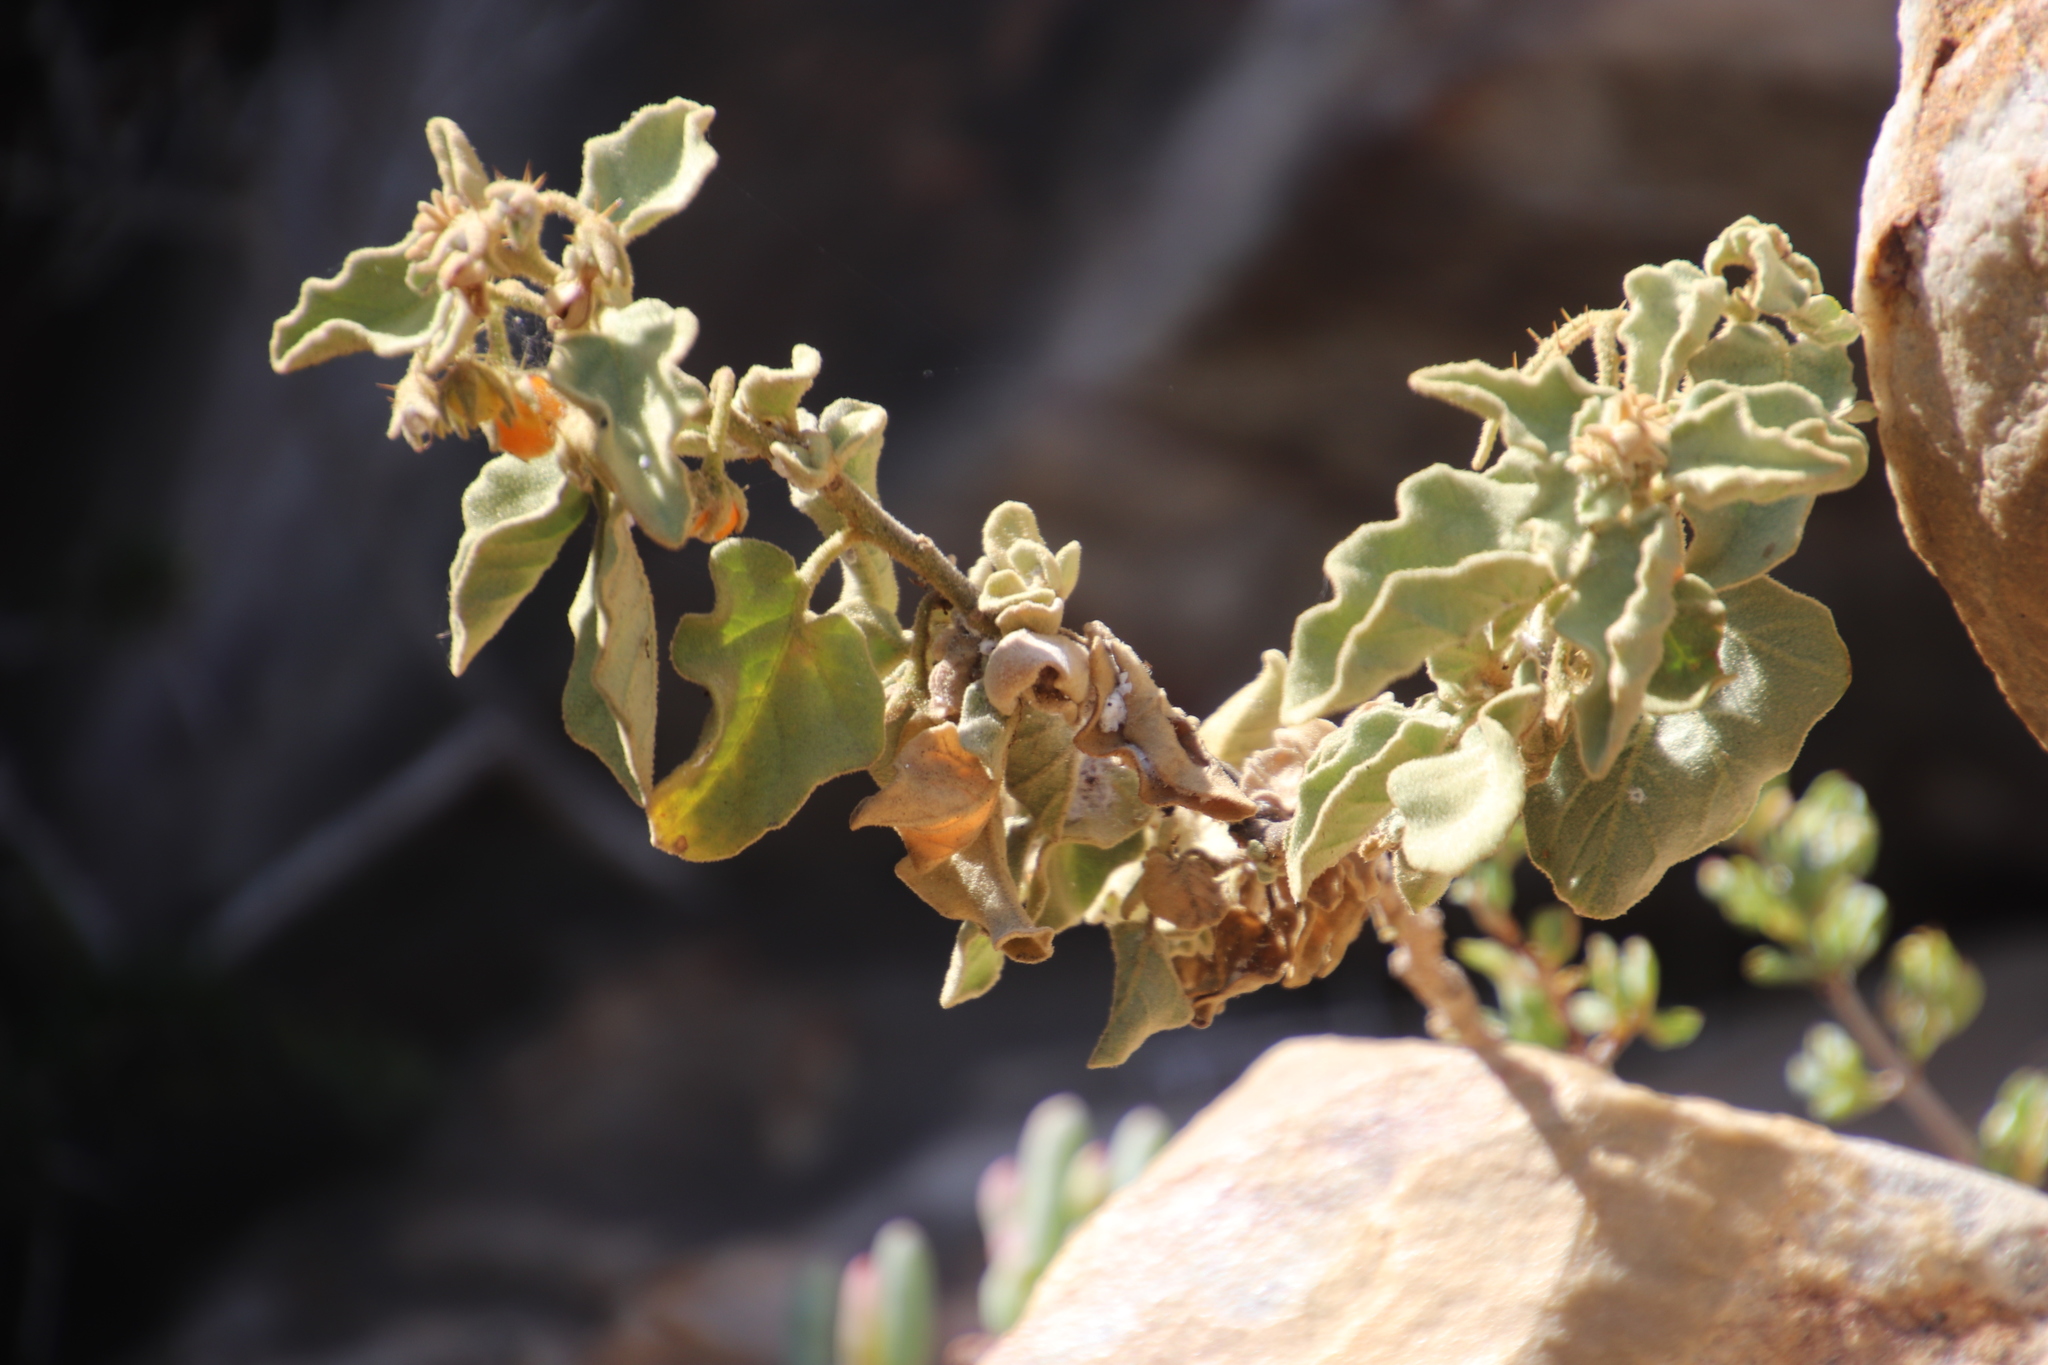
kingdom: Plantae
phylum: Tracheophyta
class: Magnoliopsida
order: Solanales
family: Solanaceae
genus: Solanum
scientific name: Solanum tomentosum
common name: Wild aubergine
